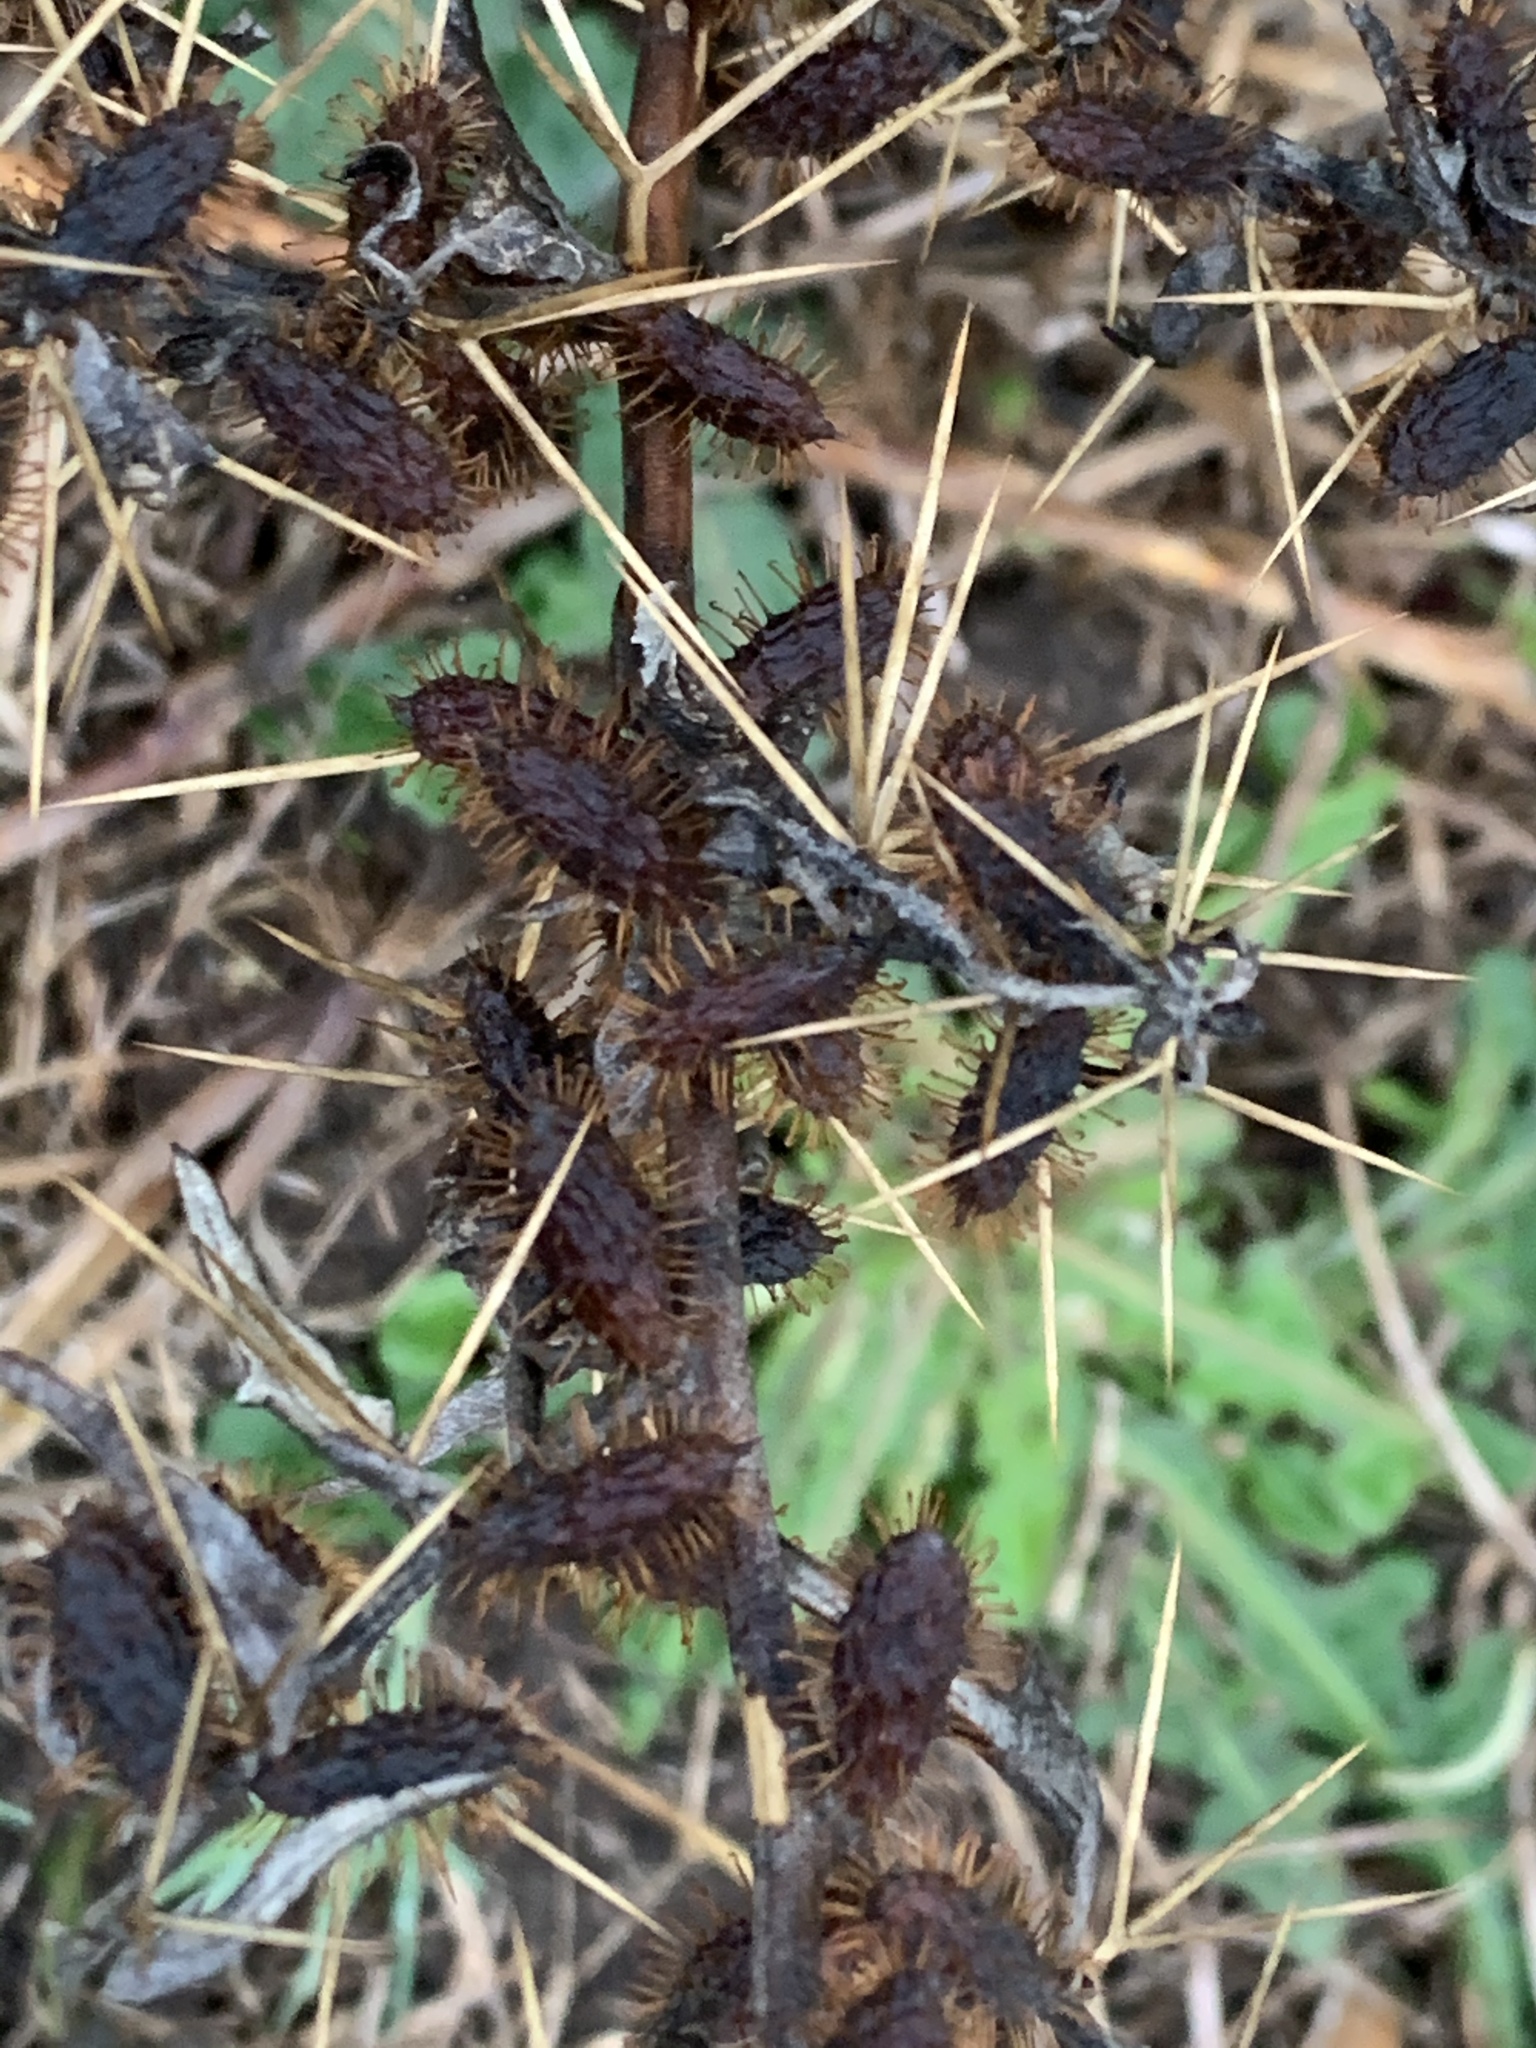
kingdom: Plantae
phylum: Tracheophyta
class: Magnoliopsida
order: Asterales
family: Asteraceae
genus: Xanthium
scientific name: Xanthium spinosum
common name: Spiny cocklebur
